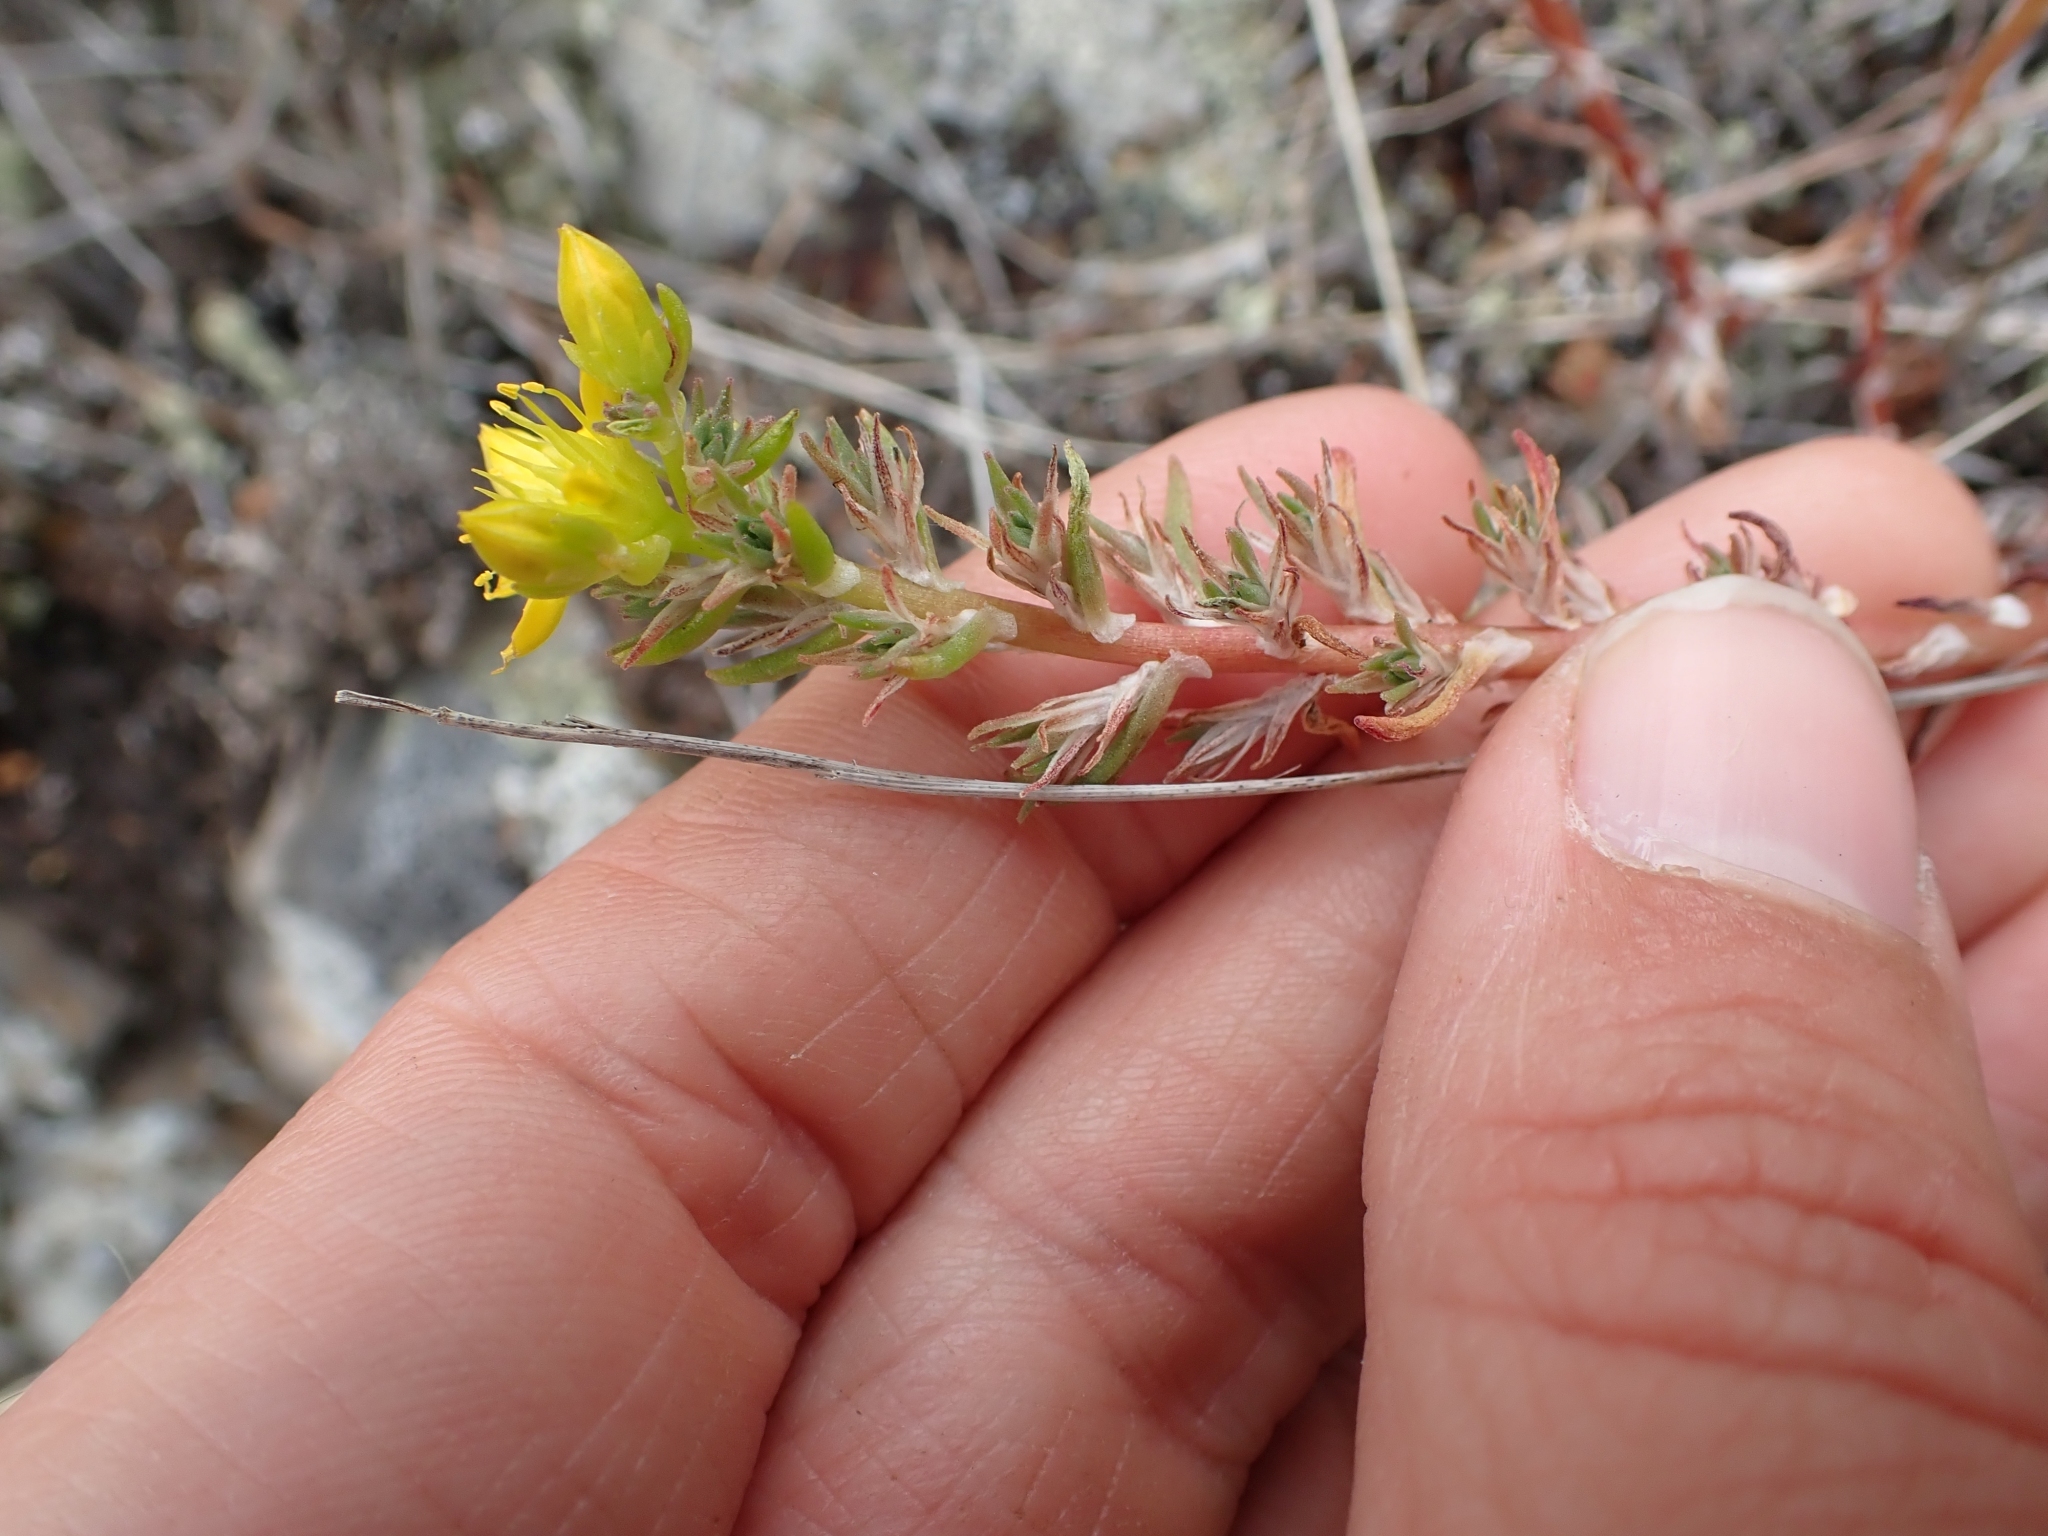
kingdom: Plantae
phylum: Tracheophyta
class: Magnoliopsida
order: Saxifragales
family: Crassulaceae
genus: Sedum
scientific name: Sedum stenopetalum
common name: Narrow-petaled stonecrop
